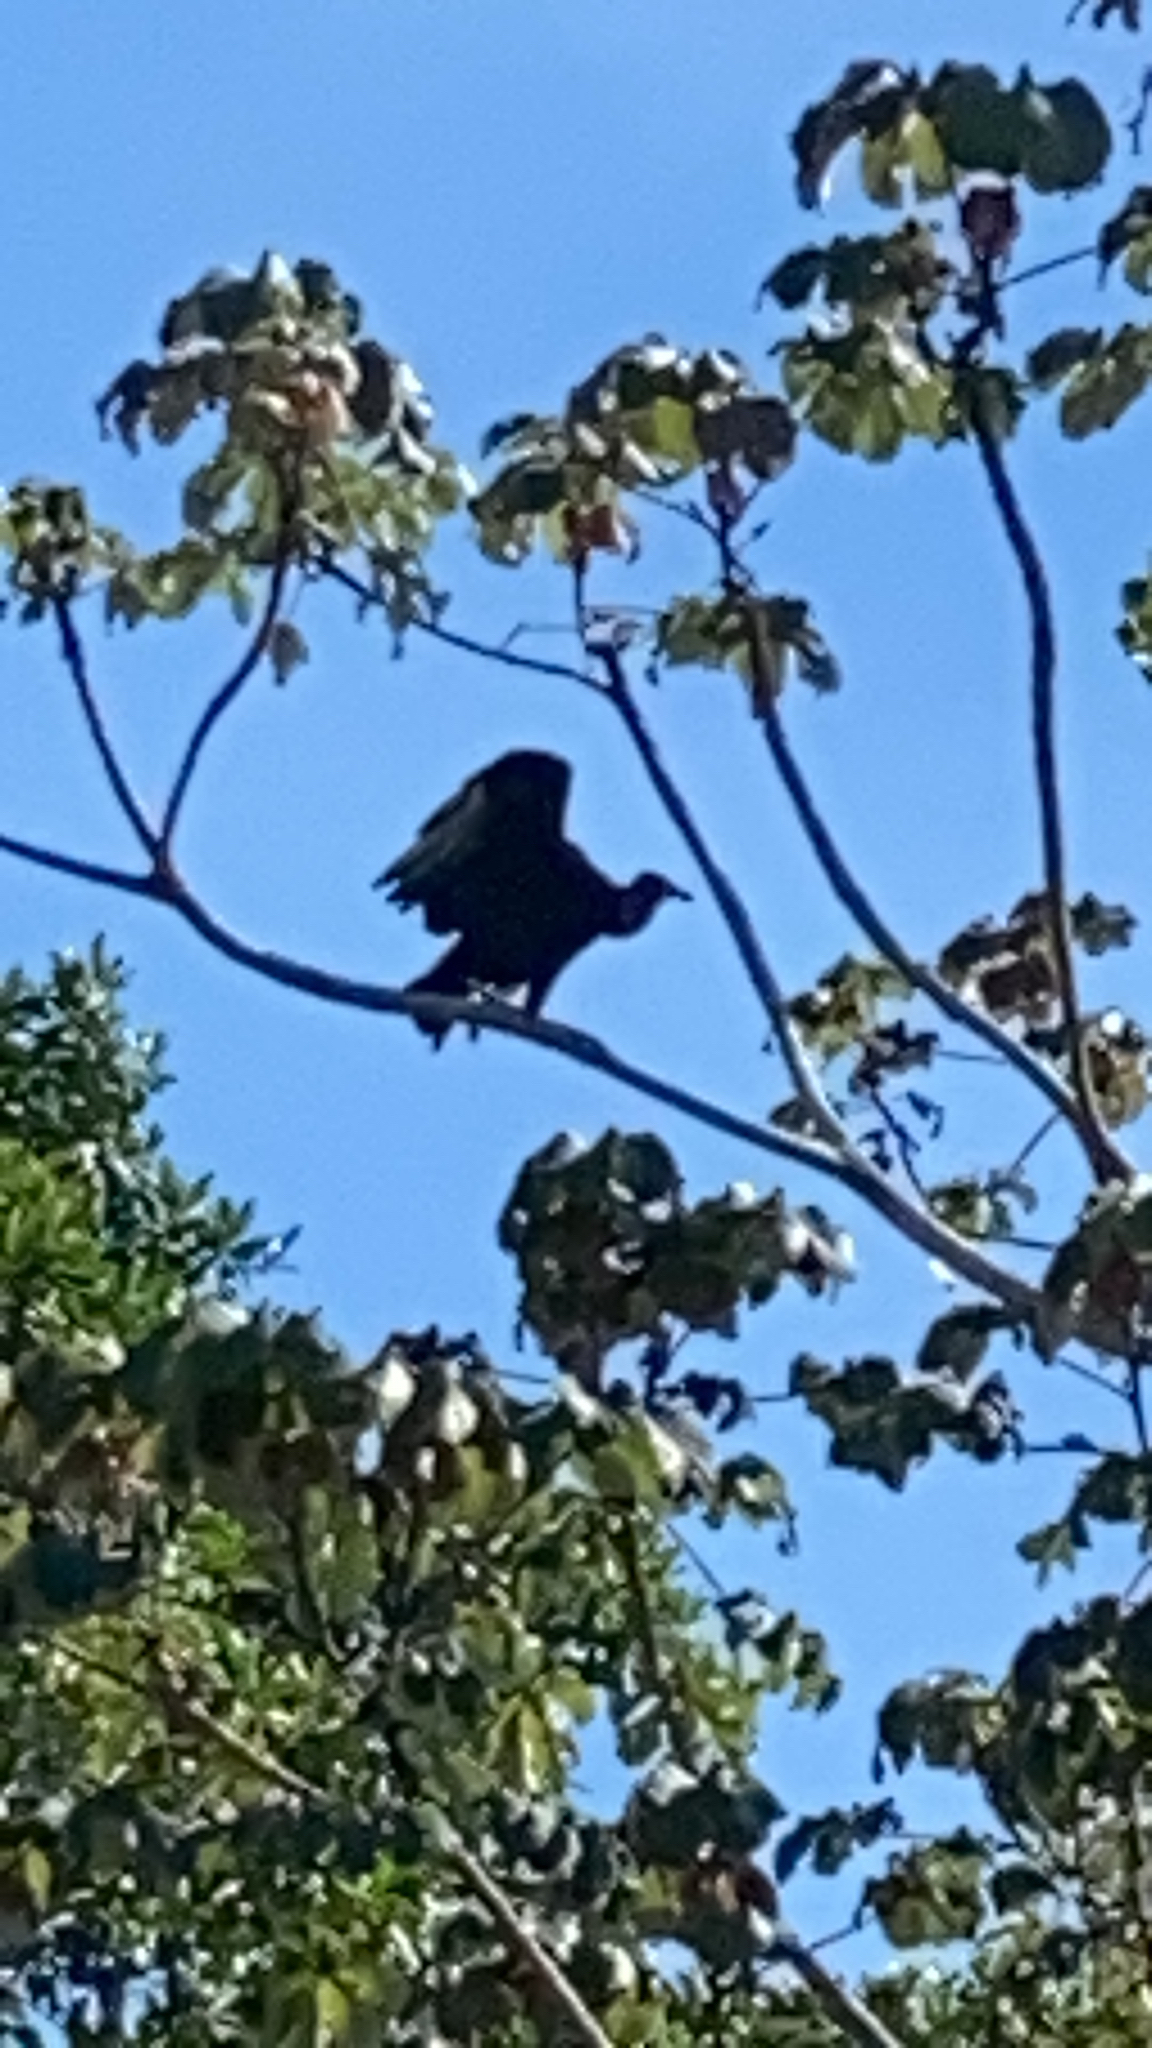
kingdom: Animalia
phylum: Chordata
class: Aves
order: Accipitriformes
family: Cathartidae
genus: Coragyps
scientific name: Coragyps atratus
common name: Black vulture
